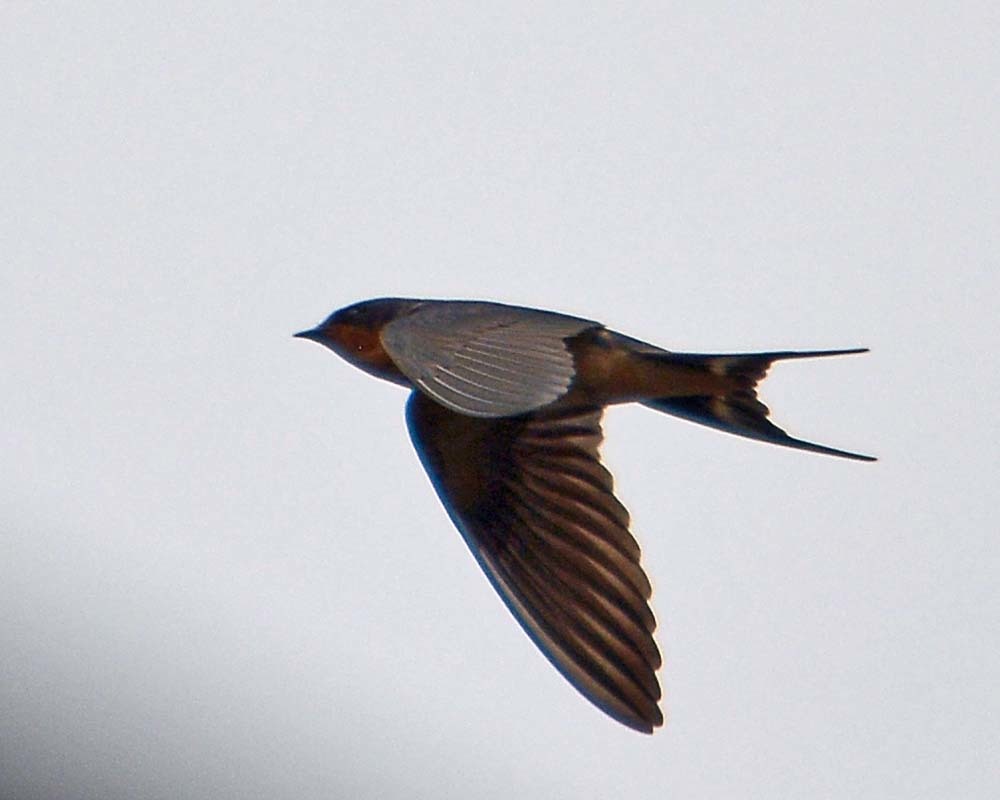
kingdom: Animalia
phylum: Chordata
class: Aves
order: Passeriformes
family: Hirundinidae
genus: Hirundo
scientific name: Hirundo rustica
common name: Barn swallow
